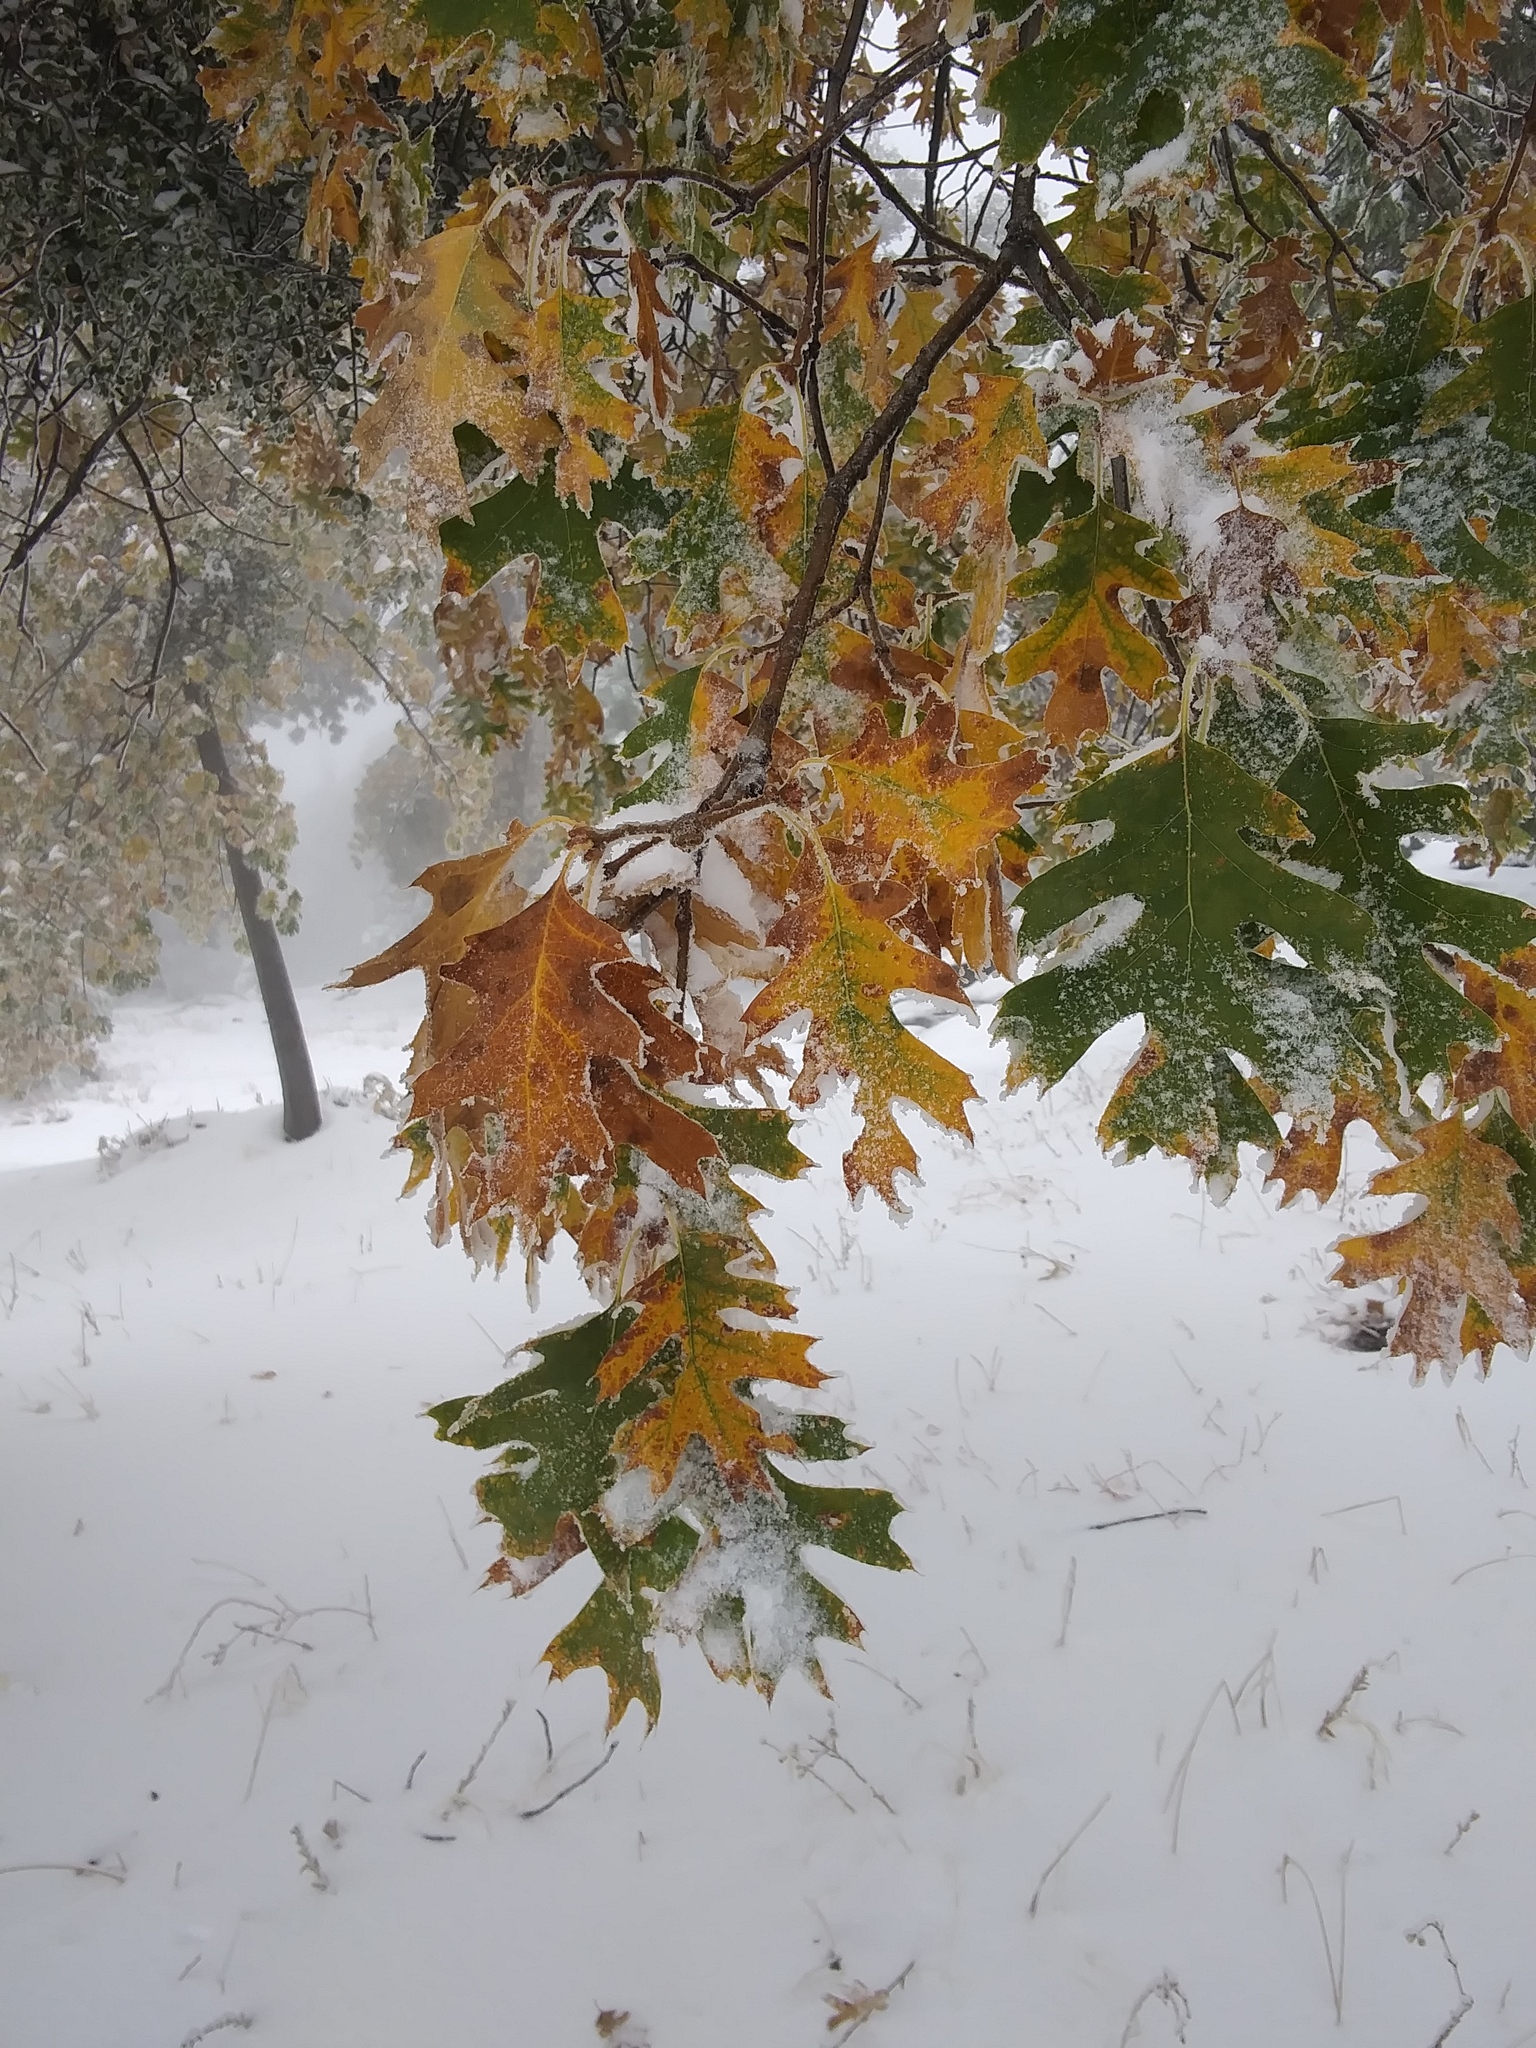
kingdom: Plantae
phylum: Tracheophyta
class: Magnoliopsida
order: Fagales
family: Fagaceae
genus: Quercus
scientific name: Quercus kelloggii
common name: California black oak
